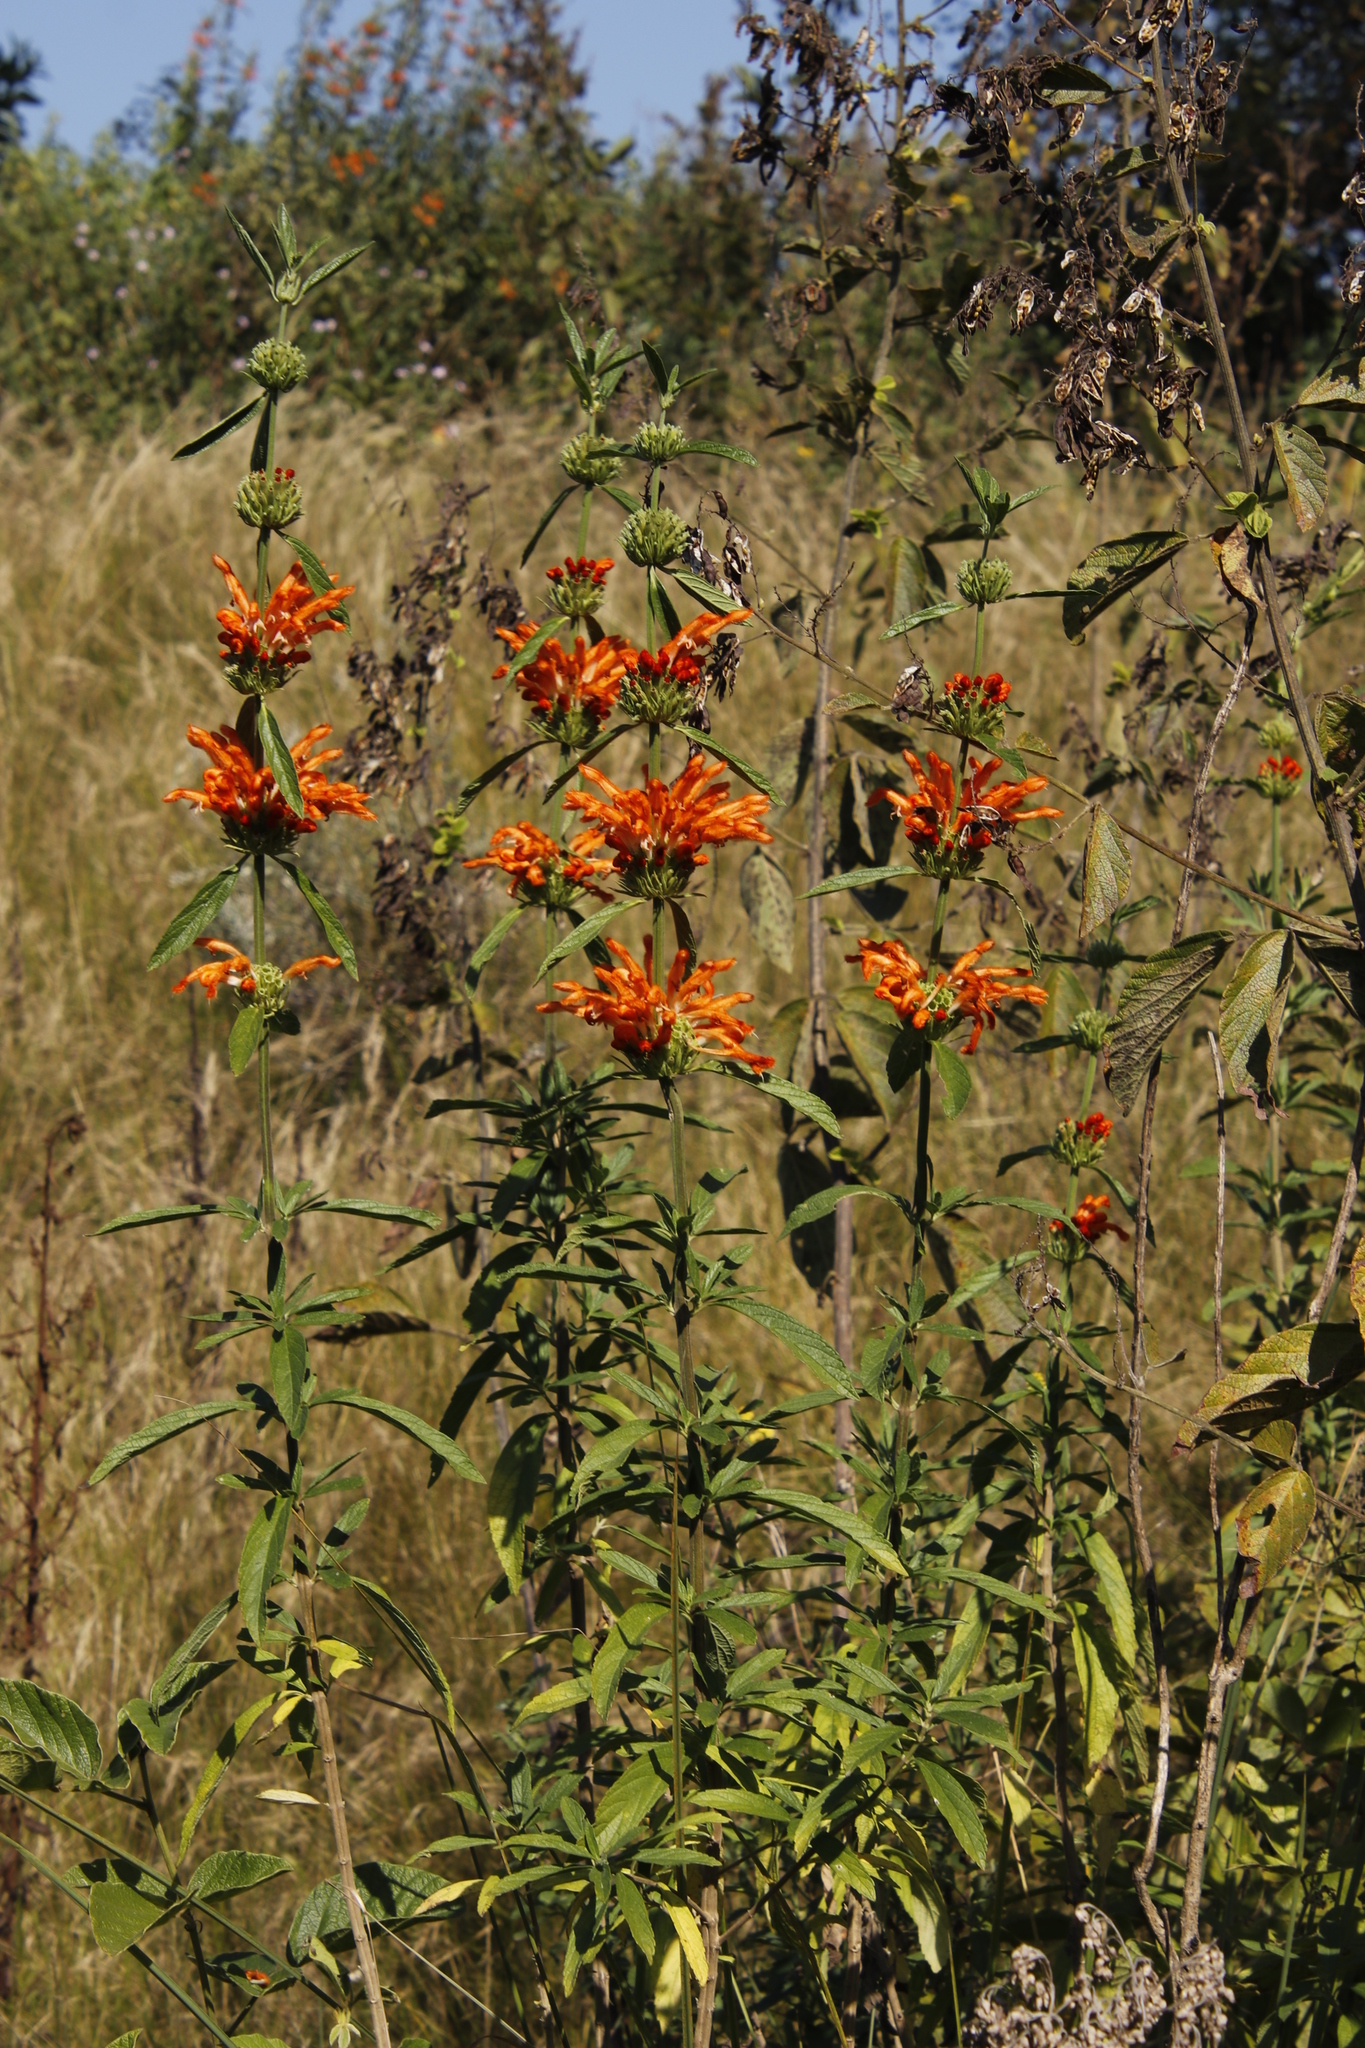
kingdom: Plantae
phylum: Tracheophyta
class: Magnoliopsida
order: Lamiales
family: Lamiaceae
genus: Leonotis
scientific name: Leonotis leonurus
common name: Lion's ear
